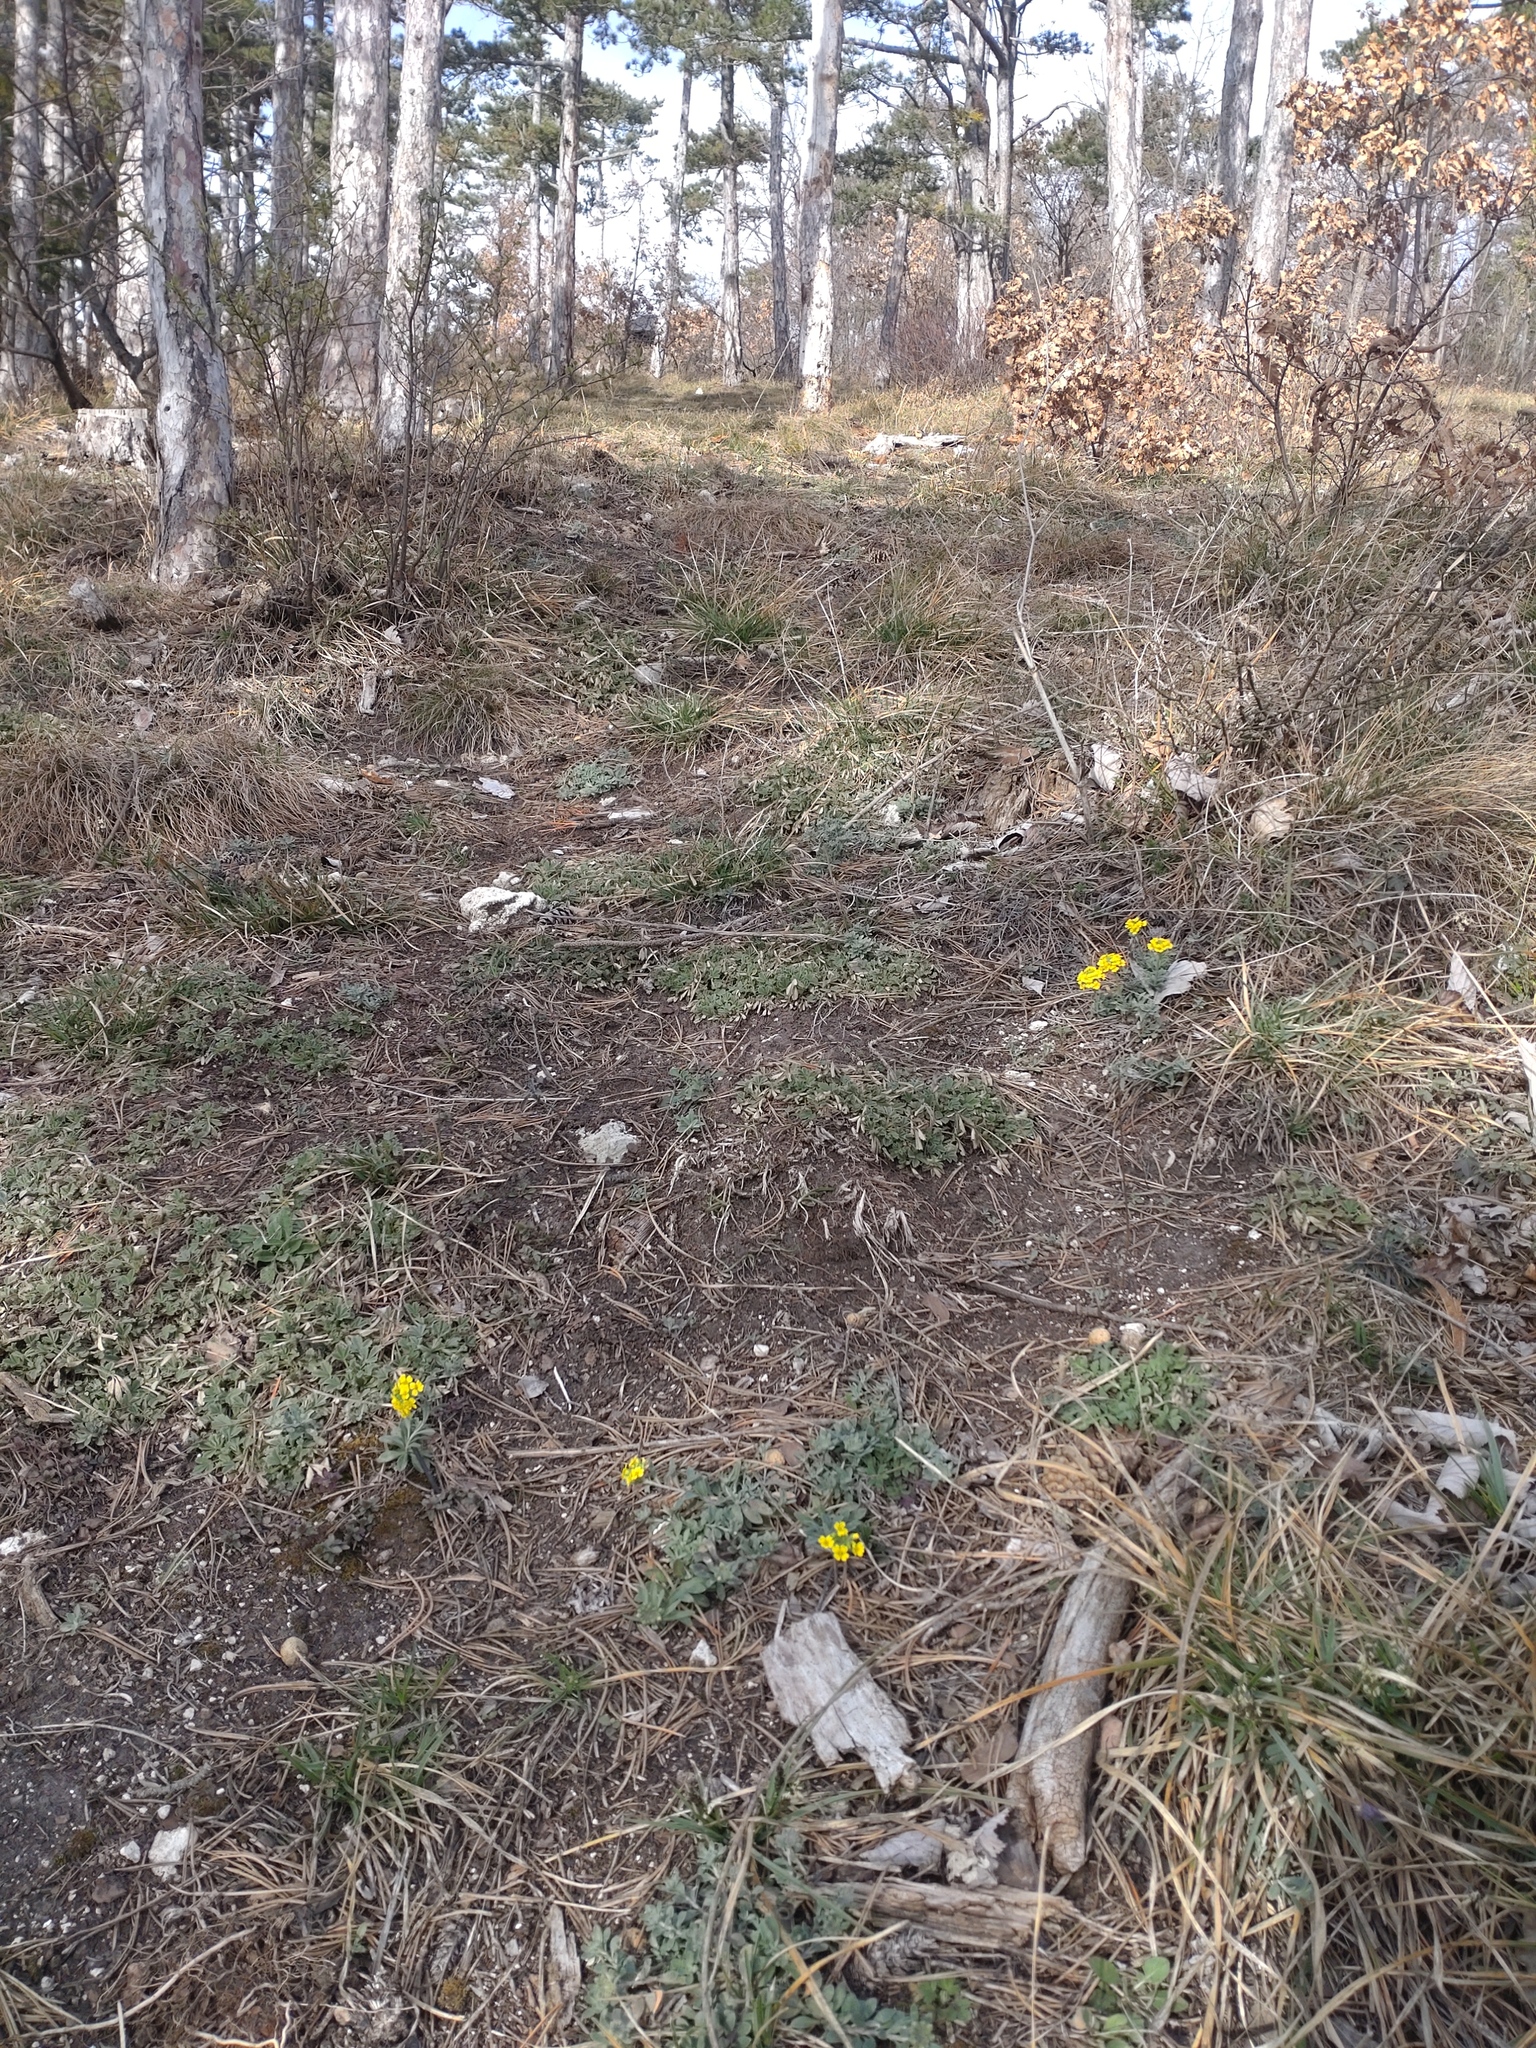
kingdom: Plantae
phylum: Tracheophyta
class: Magnoliopsida
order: Brassicales
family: Brassicaceae
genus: Alyssum
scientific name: Alyssum gmelinii
